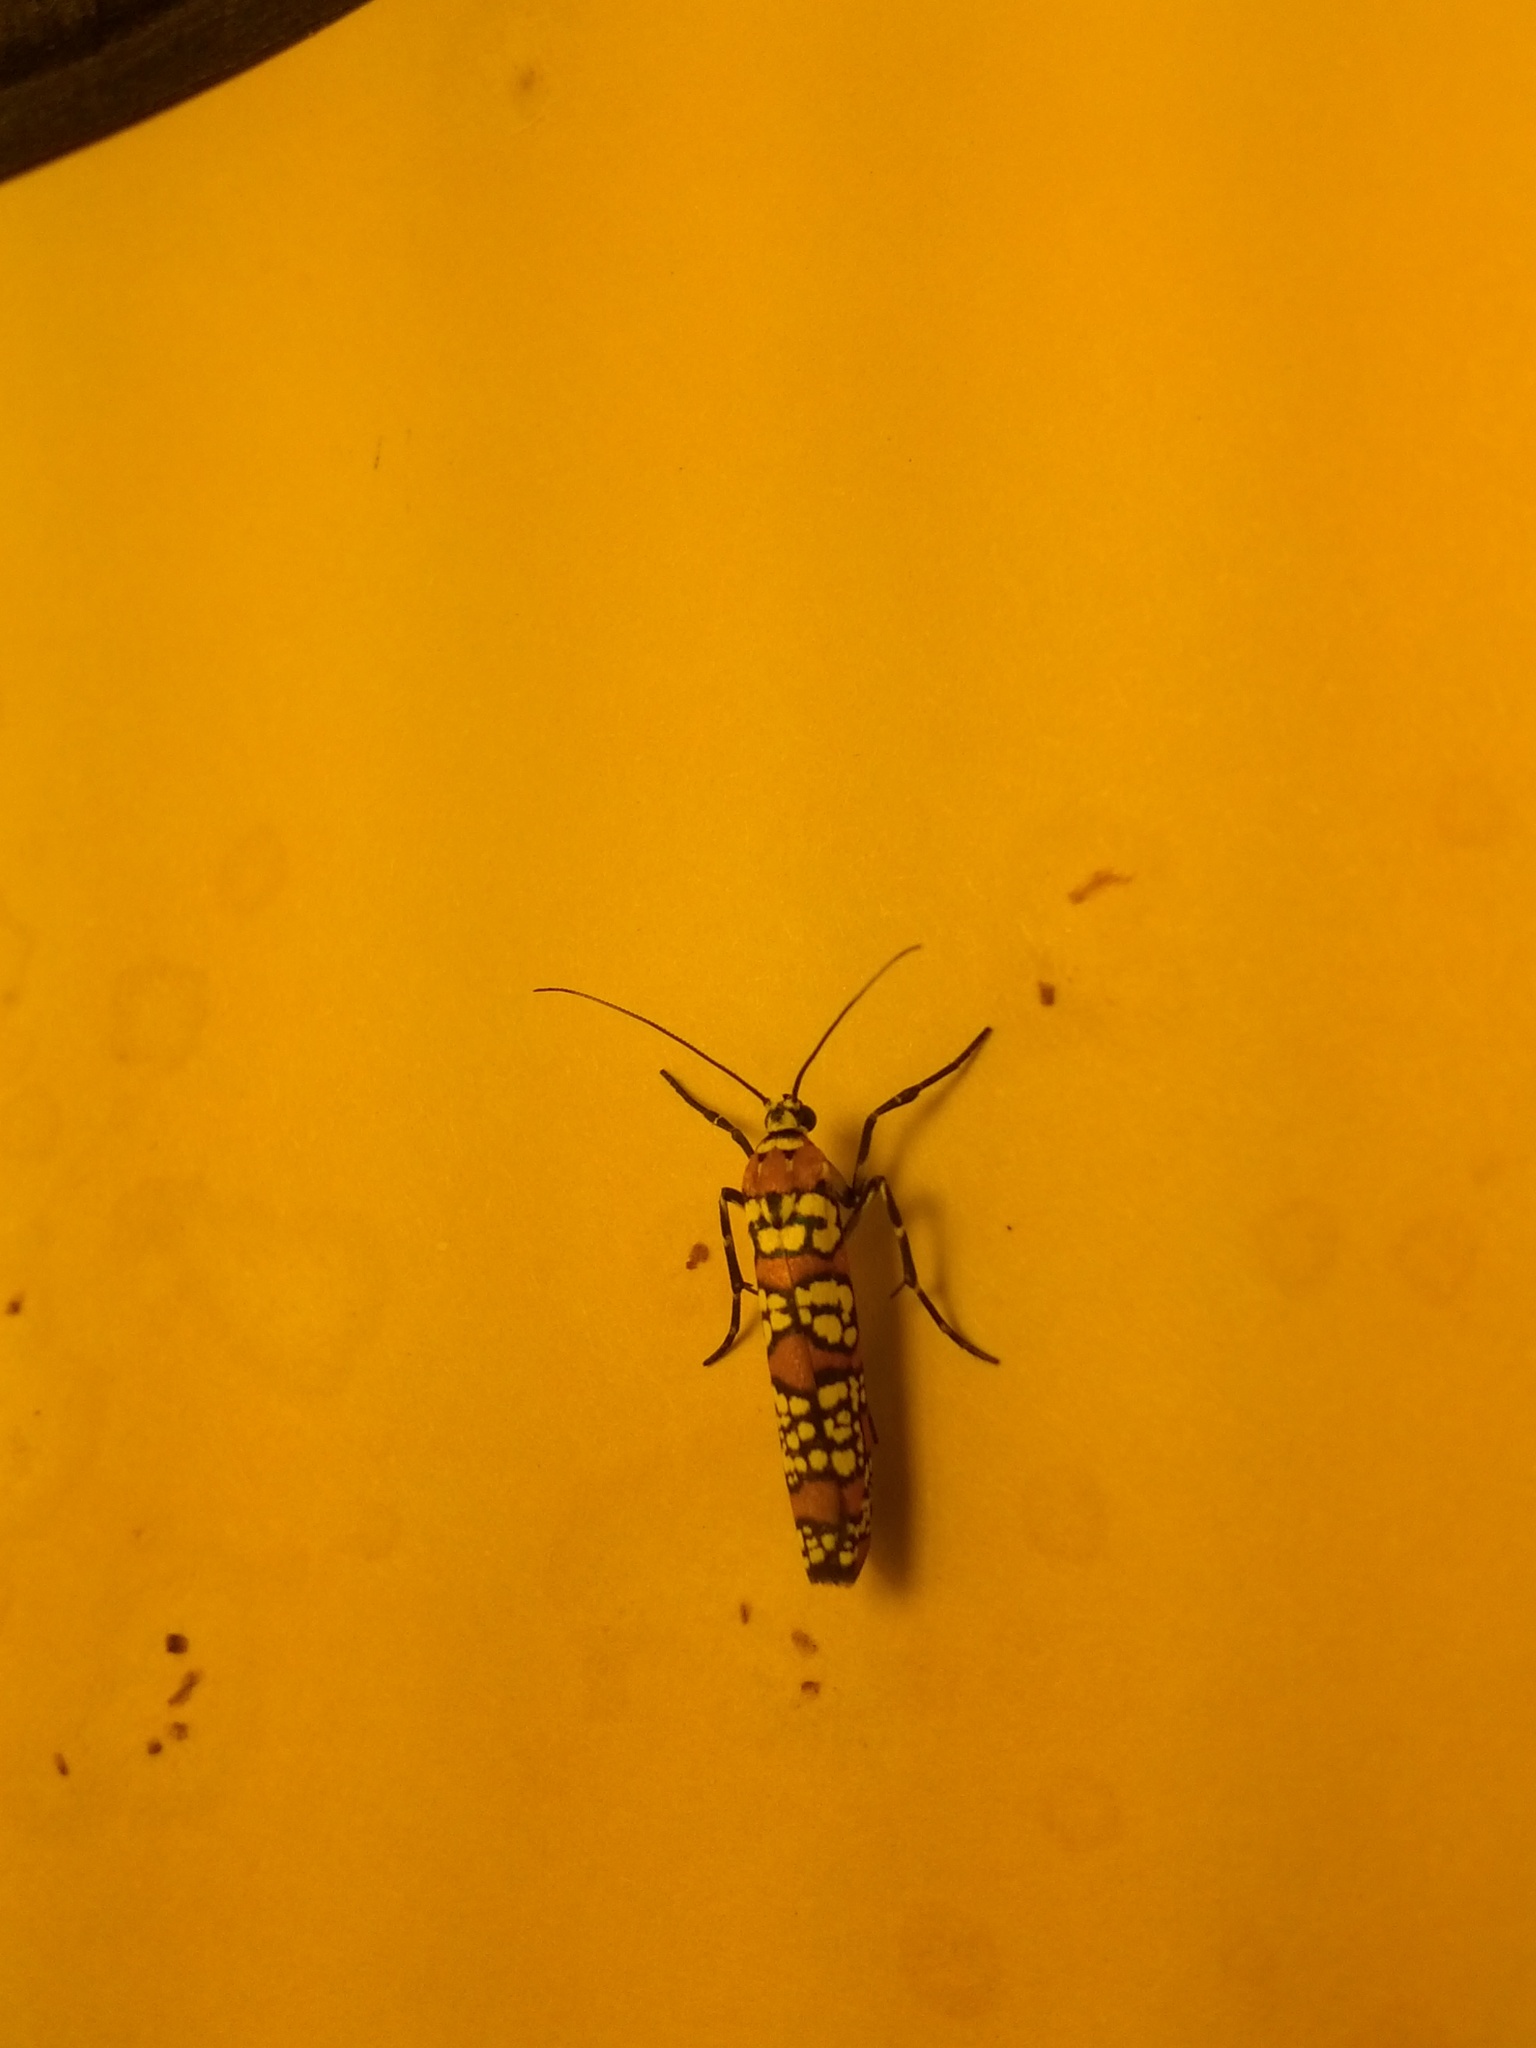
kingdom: Animalia
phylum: Arthropoda
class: Insecta
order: Lepidoptera
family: Attevidae
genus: Atteva
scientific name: Atteva punctella
